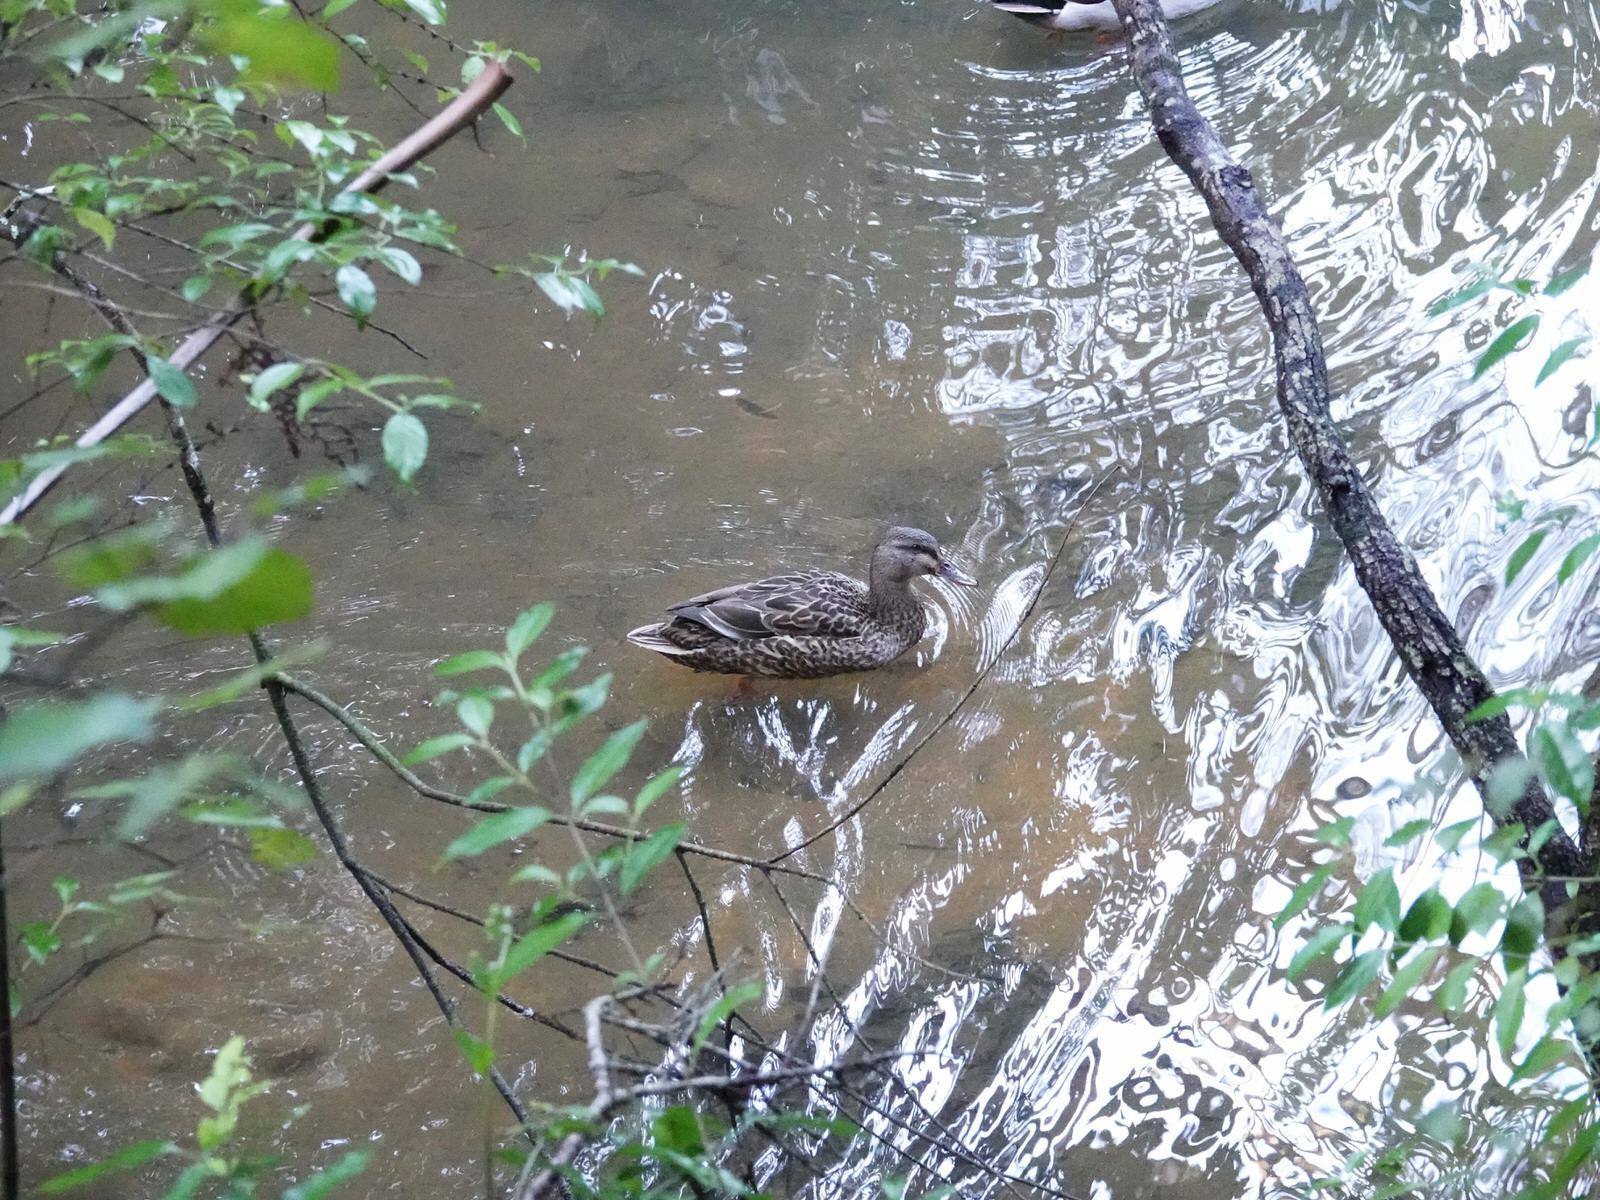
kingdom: Animalia
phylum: Chordata
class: Aves
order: Anseriformes
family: Anatidae
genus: Anas
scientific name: Anas
